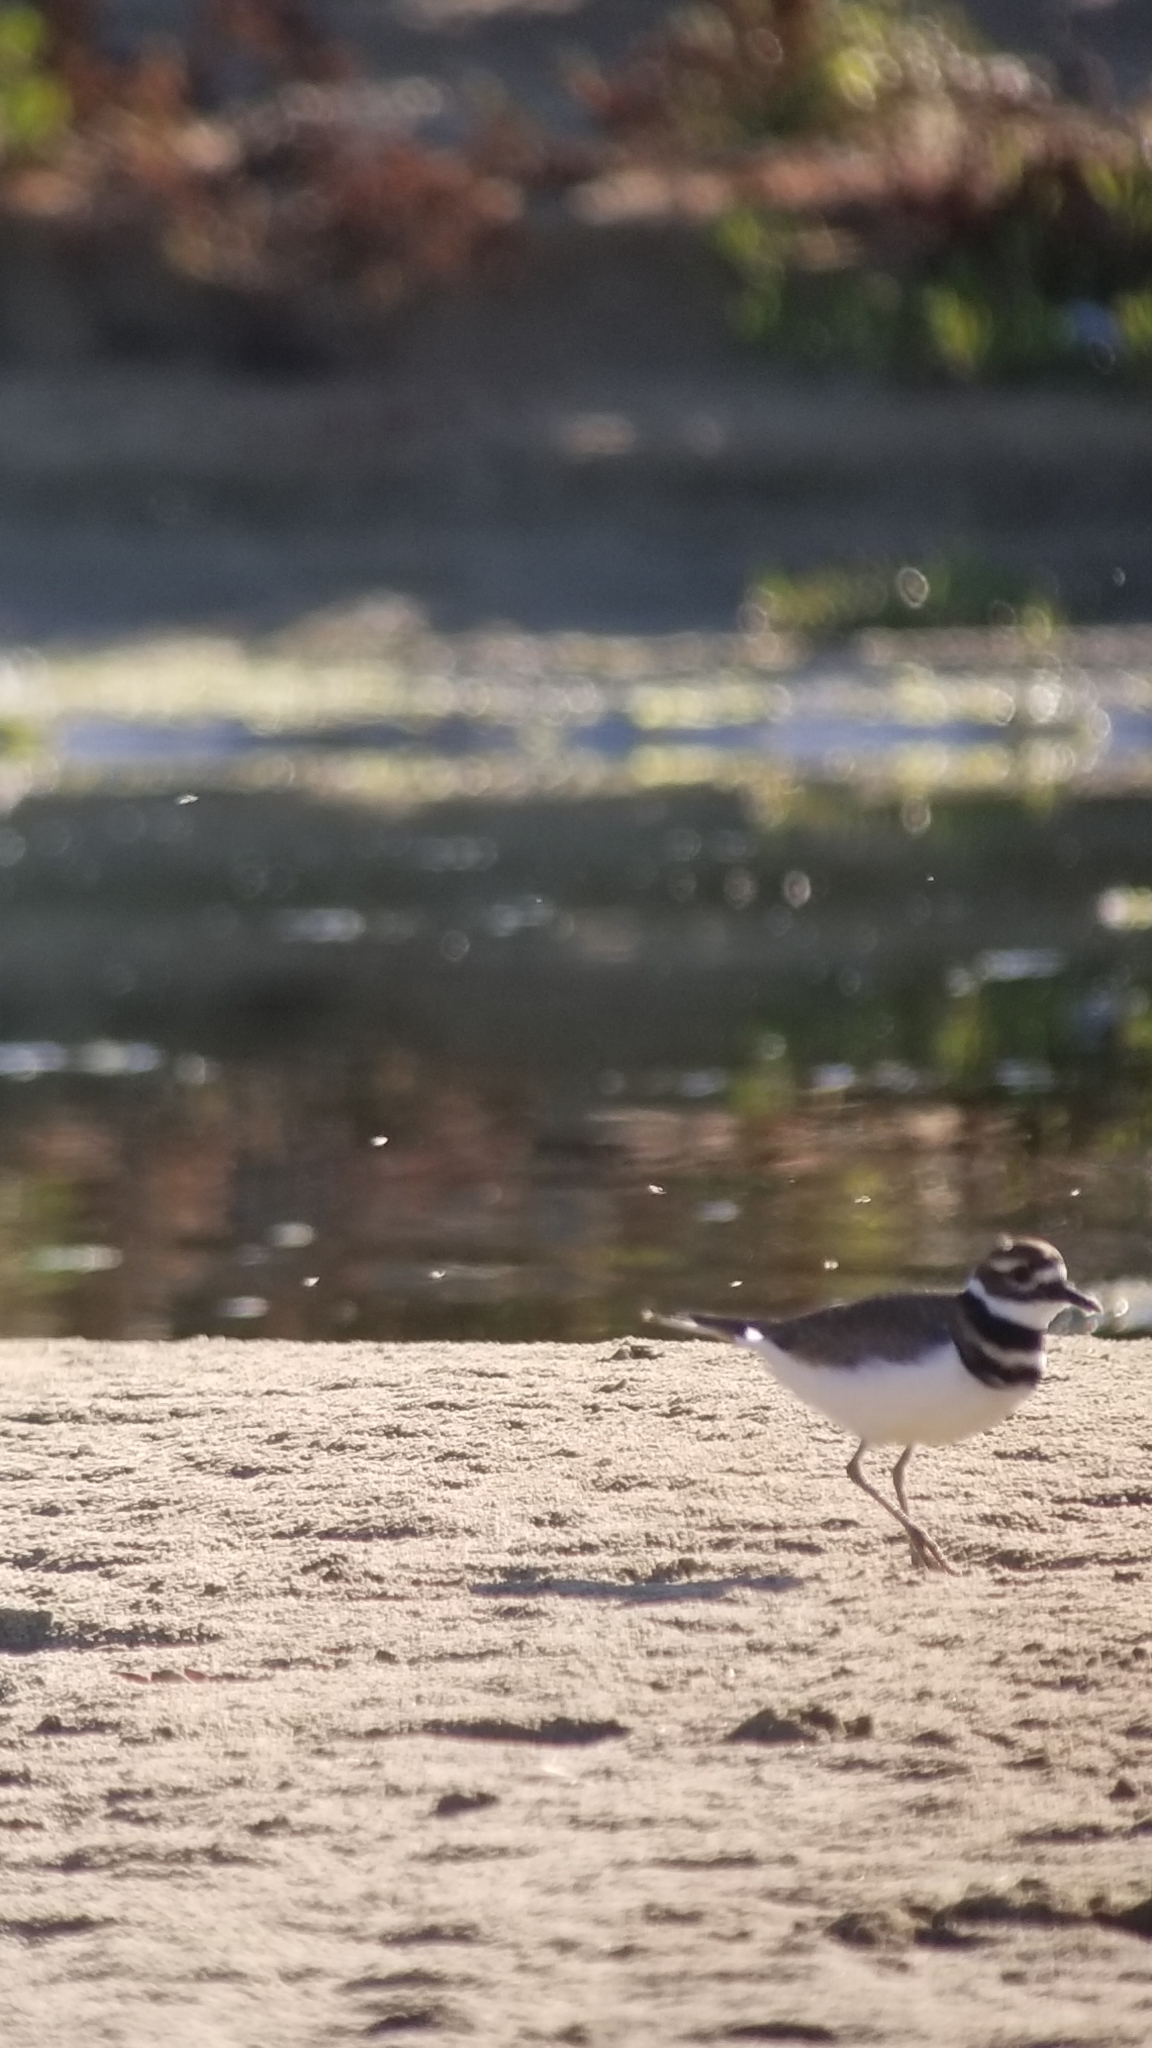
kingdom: Animalia
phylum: Chordata
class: Aves
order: Charadriiformes
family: Charadriidae
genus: Charadrius
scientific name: Charadrius vociferus
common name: Killdeer
